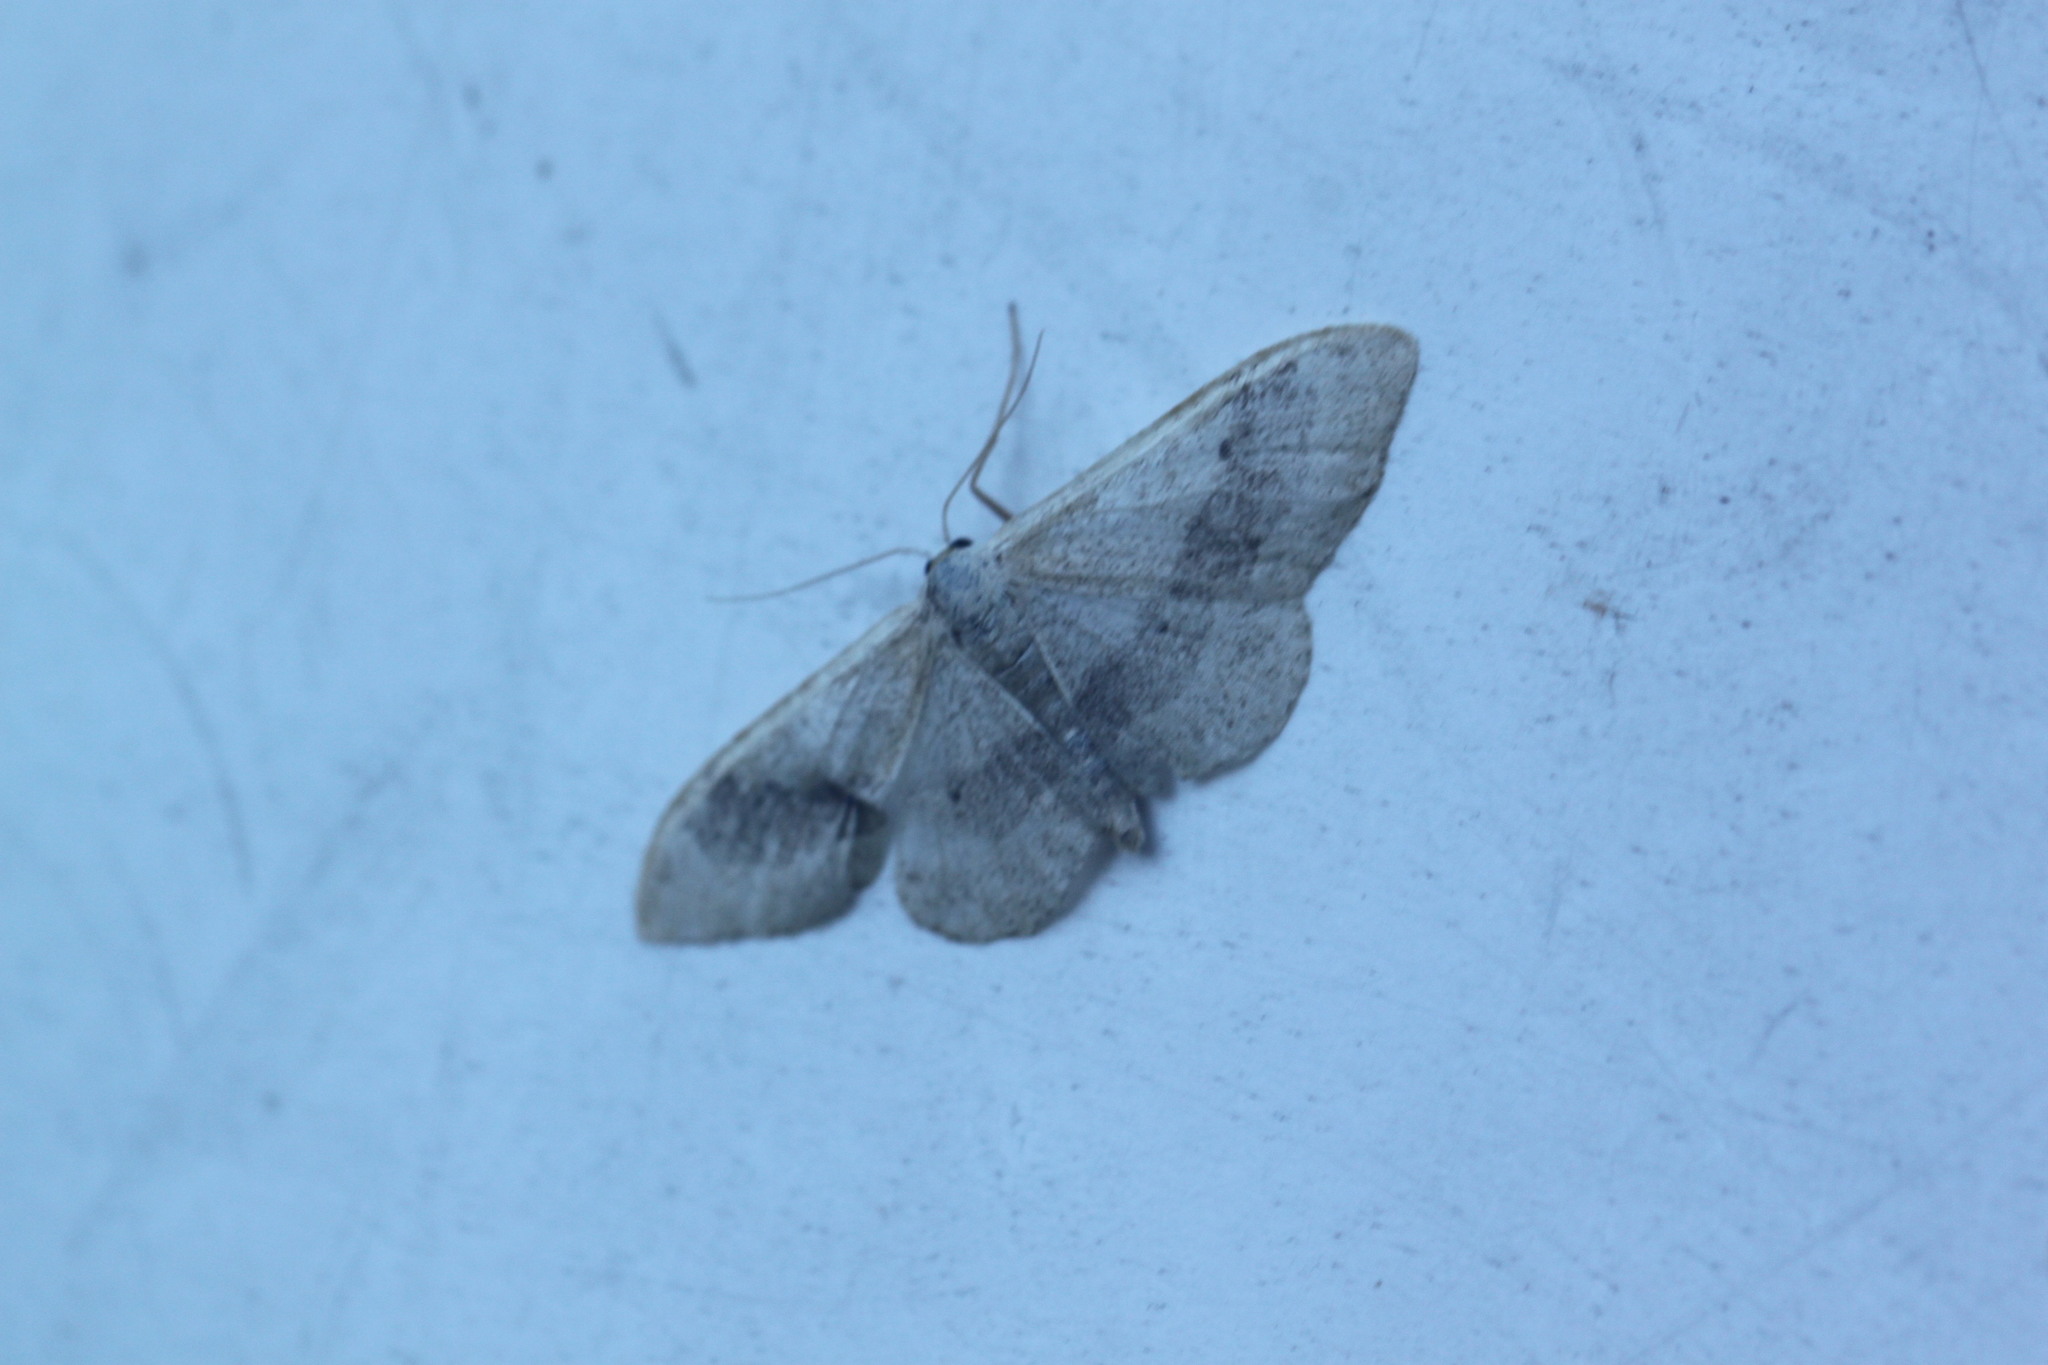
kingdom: Animalia
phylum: Arthropoda
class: Insecta
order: Lepidoptera
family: Geometridae
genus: Idaea
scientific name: Idaea aversata
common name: Riband wave
